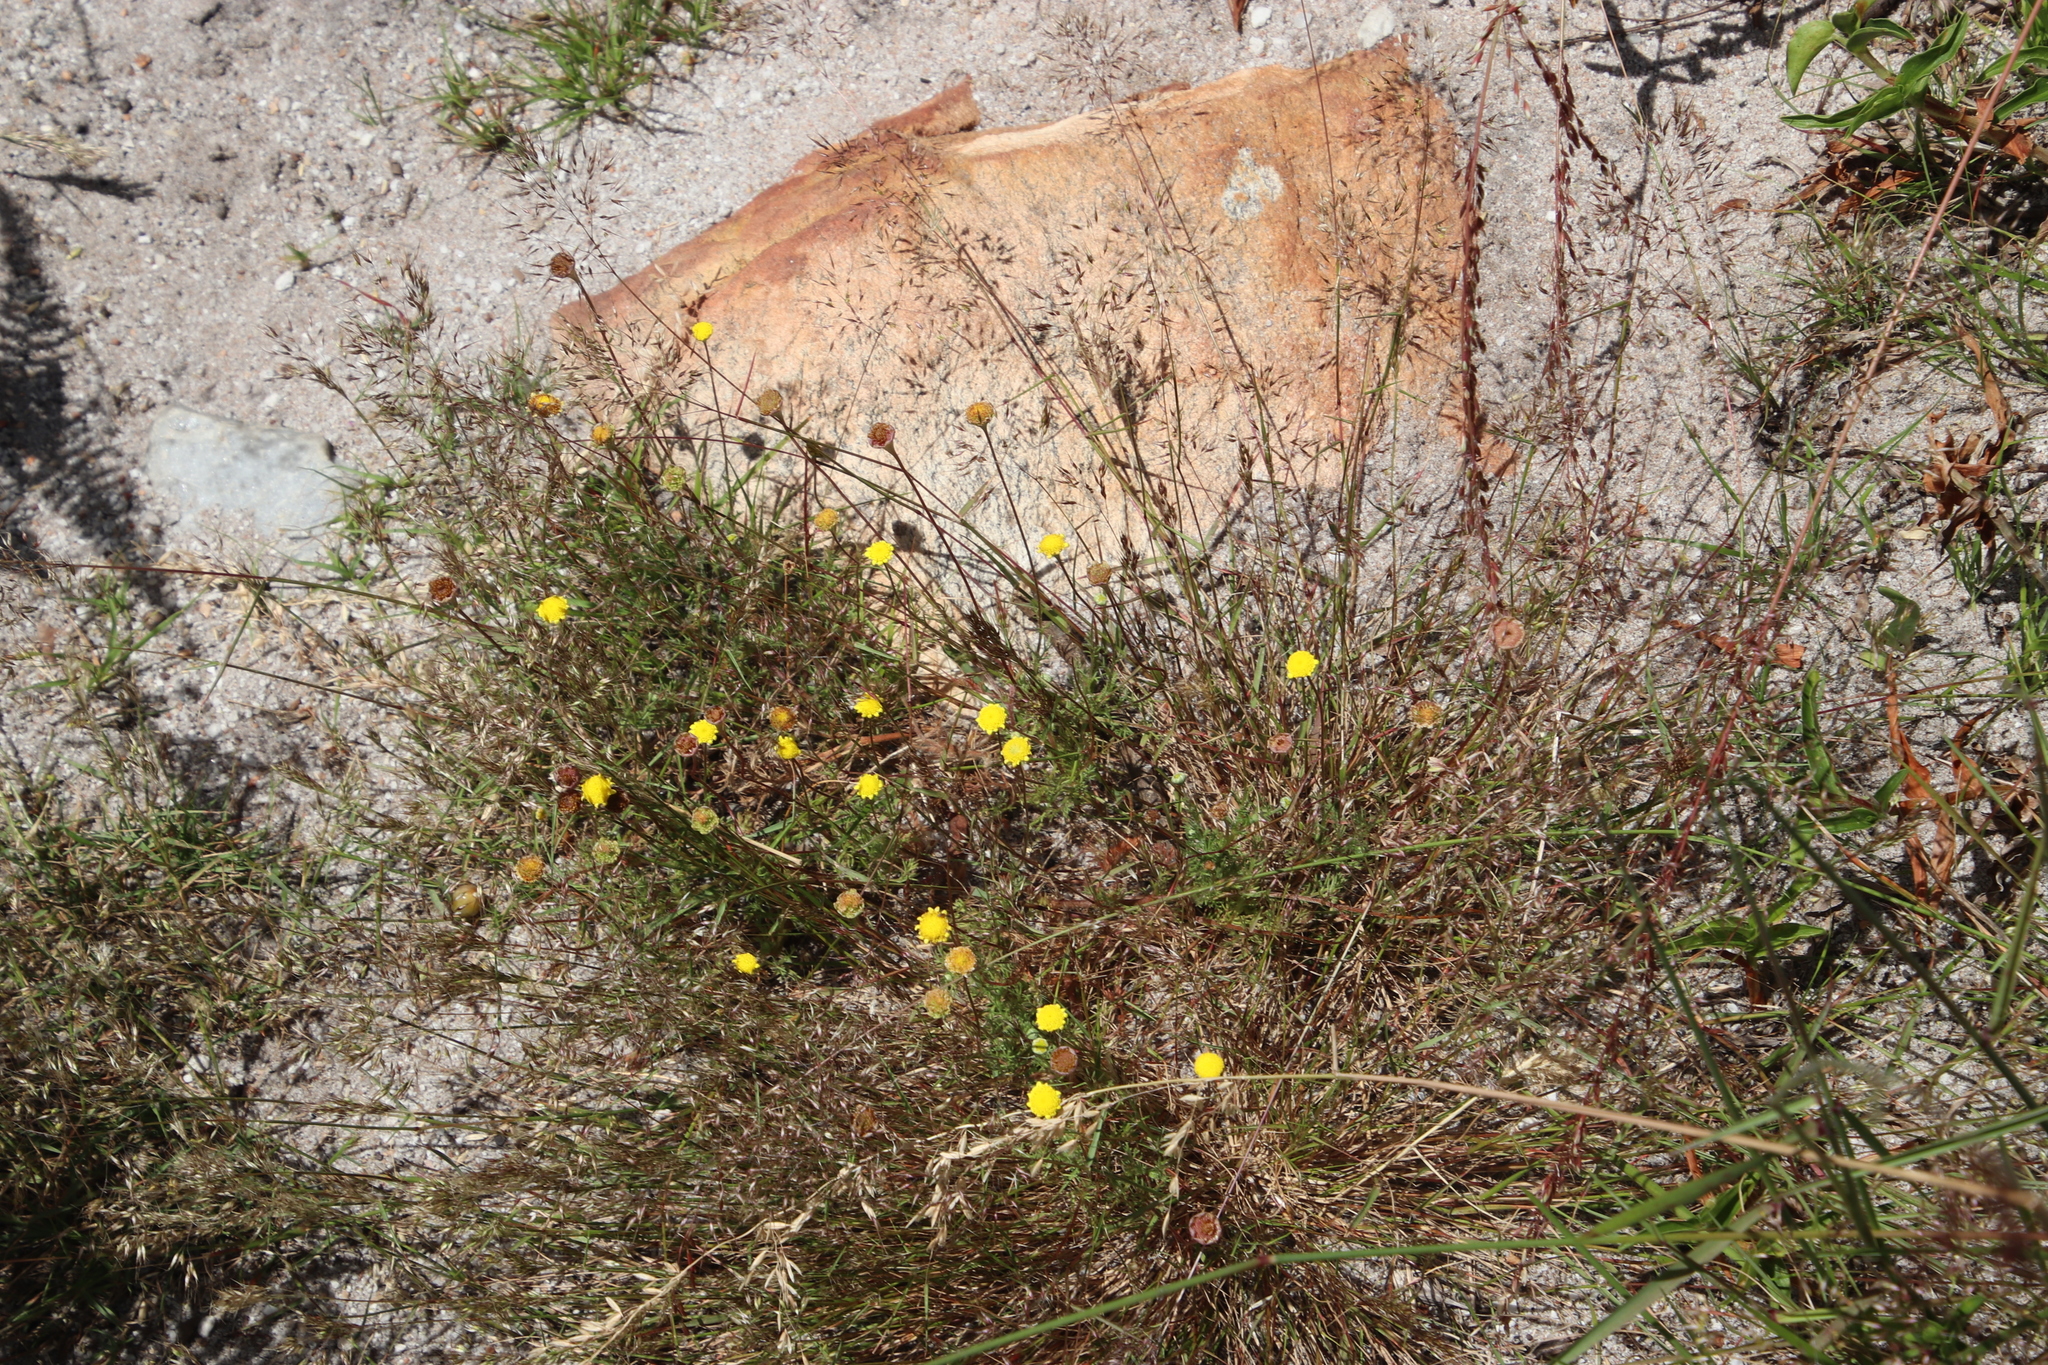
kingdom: Plantae
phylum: Tracheophyta
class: Magnoliopsida
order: Asterales
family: Asteraceae
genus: Cotula
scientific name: Cotula pruinosa
